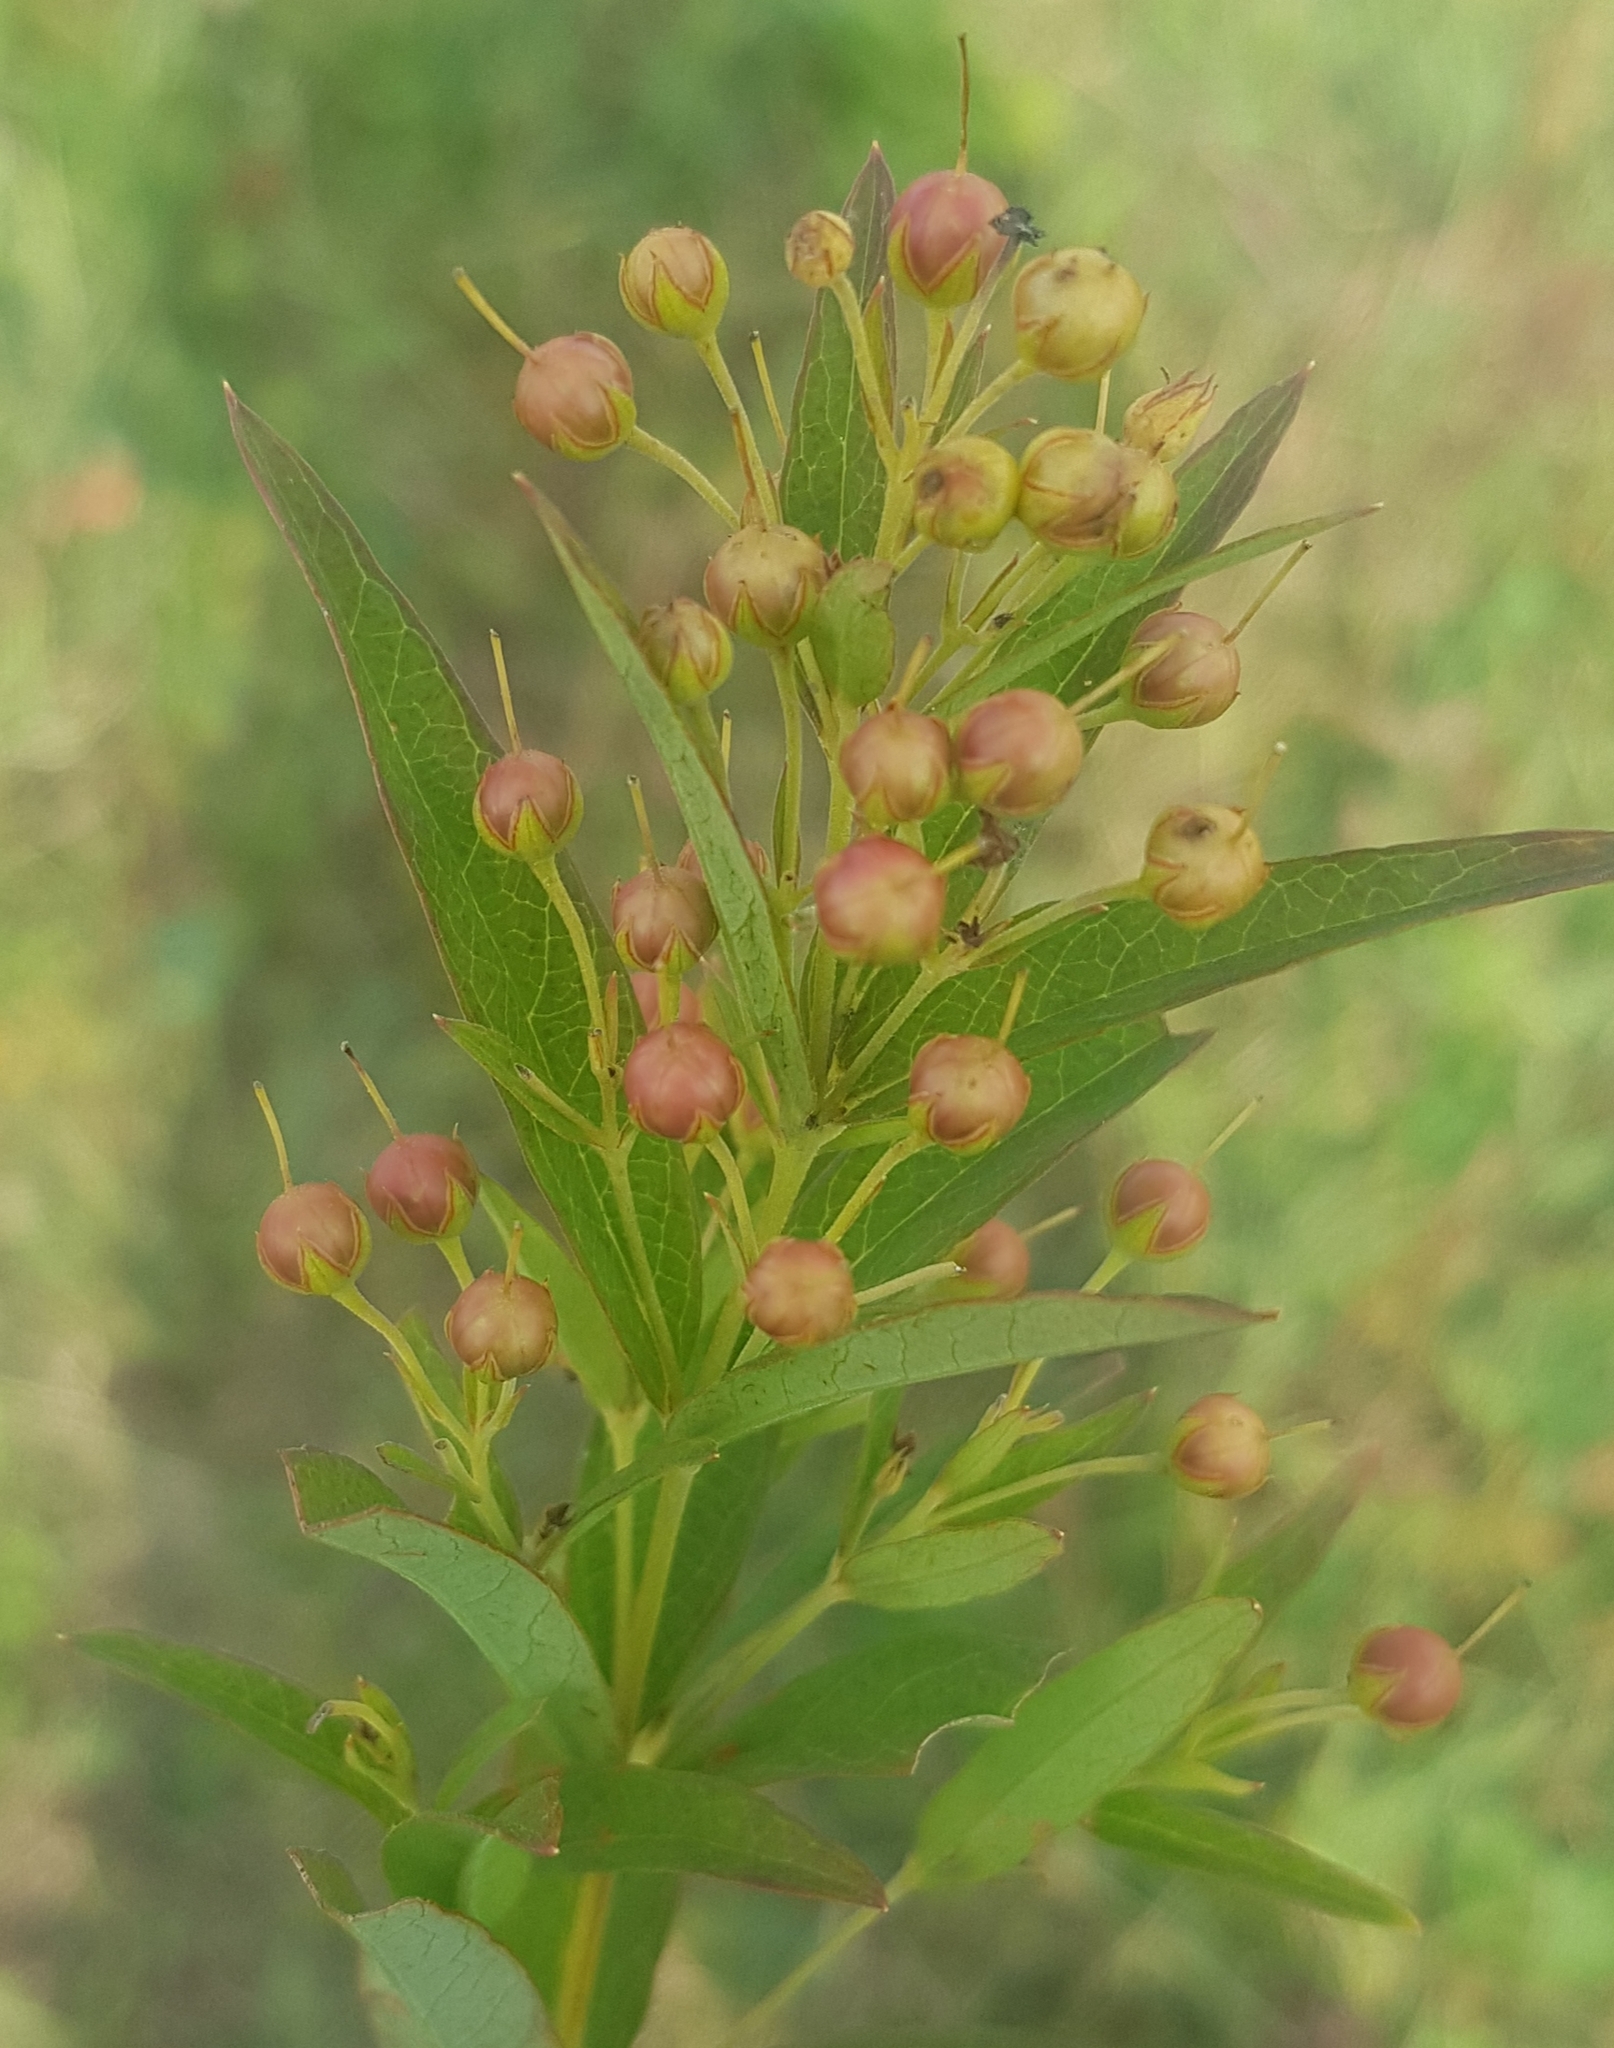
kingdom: Plantae
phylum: Tracheophyta
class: Magnoliopsida
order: Ericales
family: Primulaceae
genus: Lysimachia
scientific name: Lysimachia davurica
